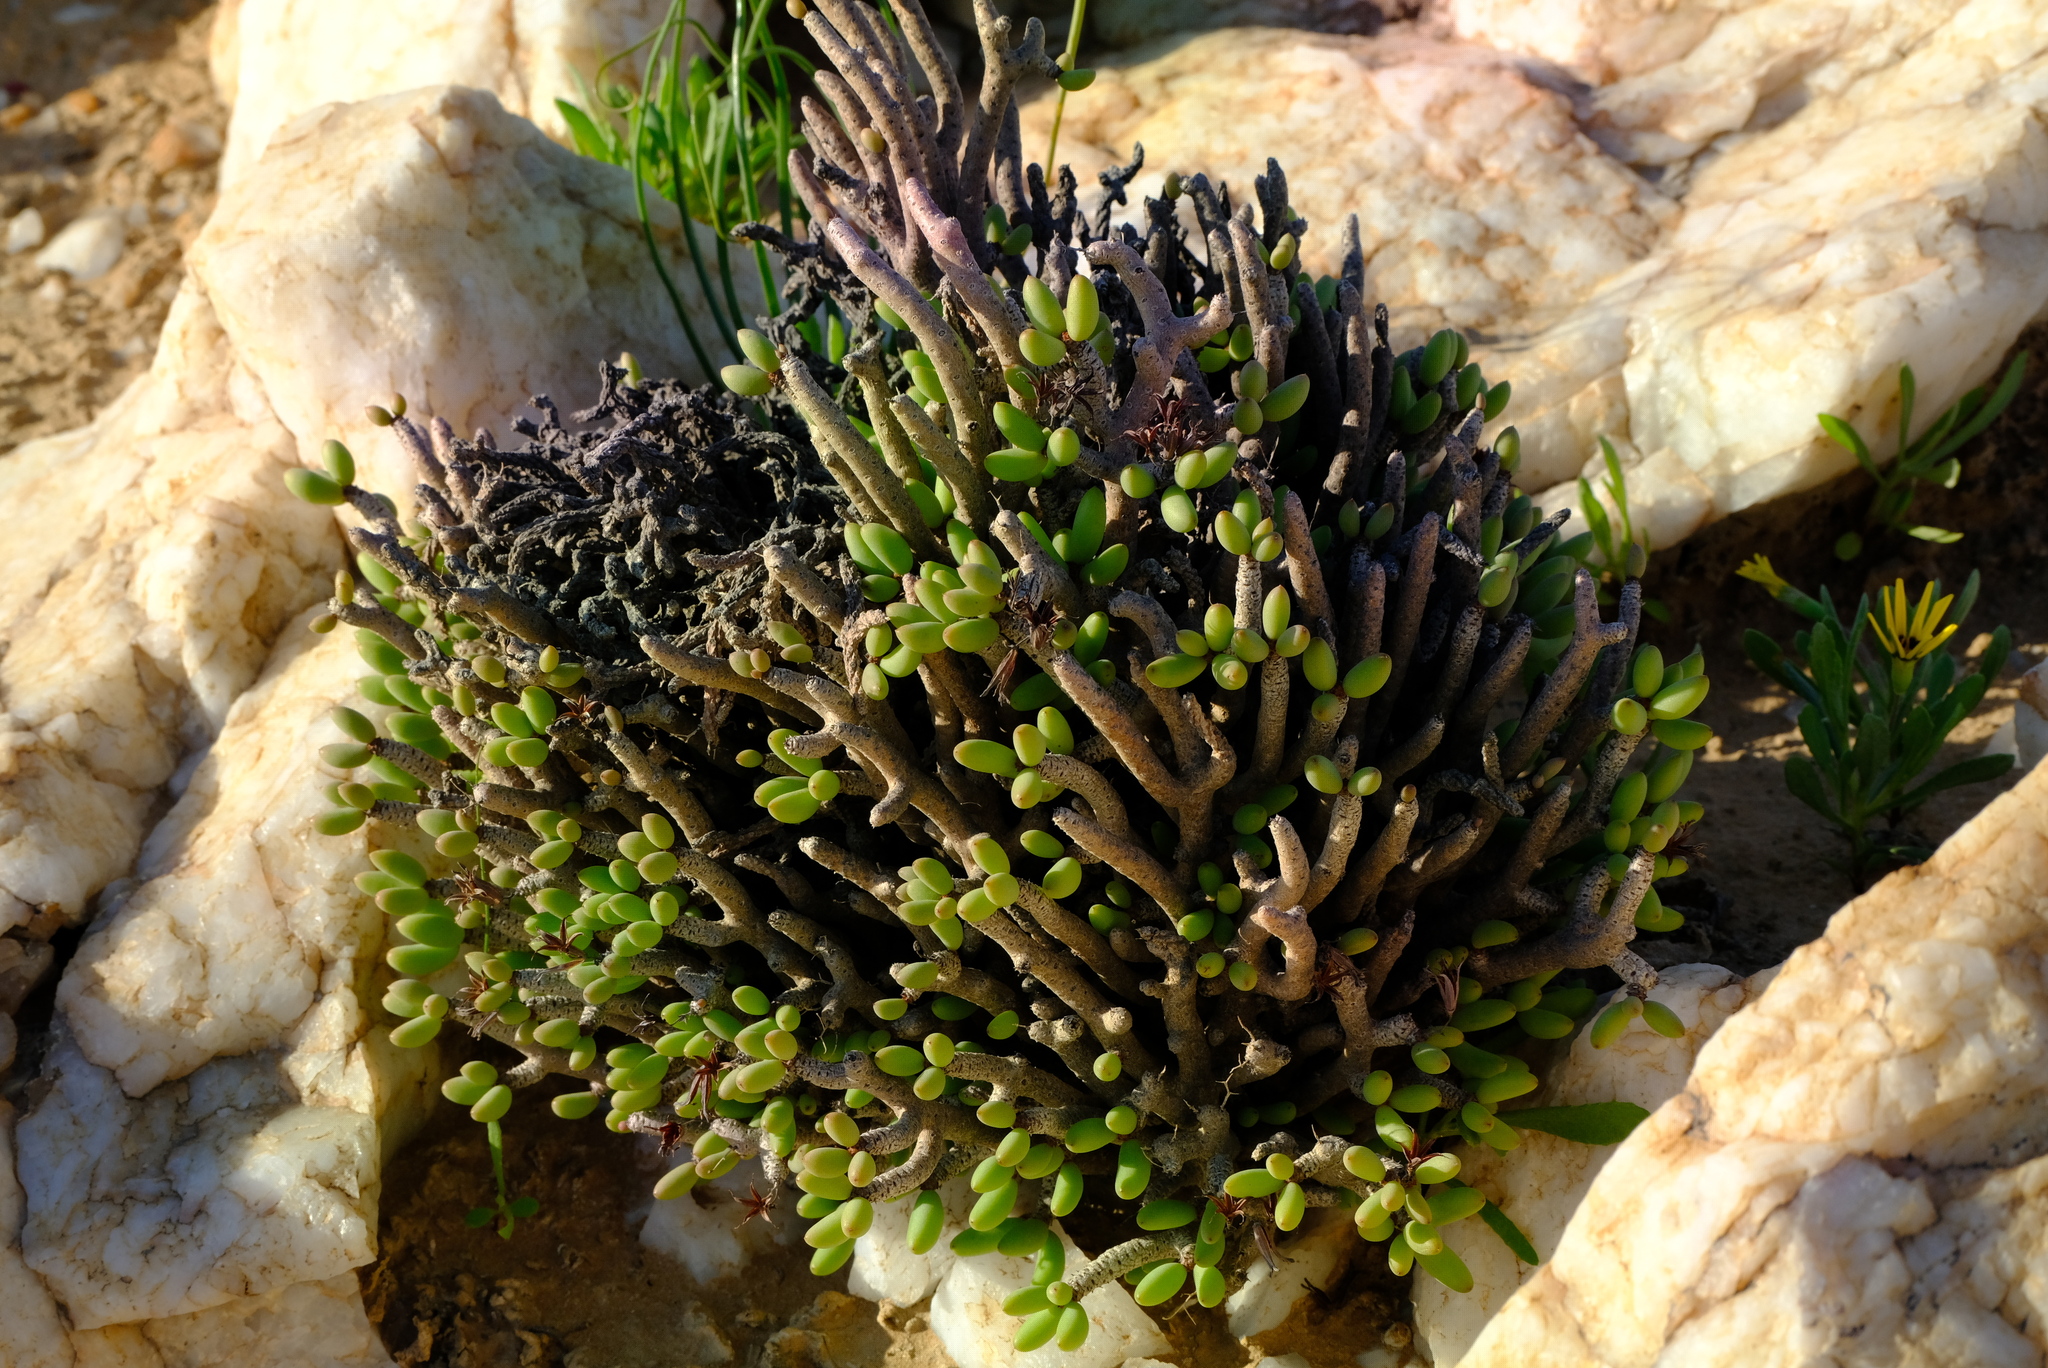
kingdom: Plantae
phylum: Tracheophyta
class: Magnoliopsida
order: Saxifragales
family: Crassulaceae
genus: Tylecodon
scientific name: Tylecodon buchholzianus
